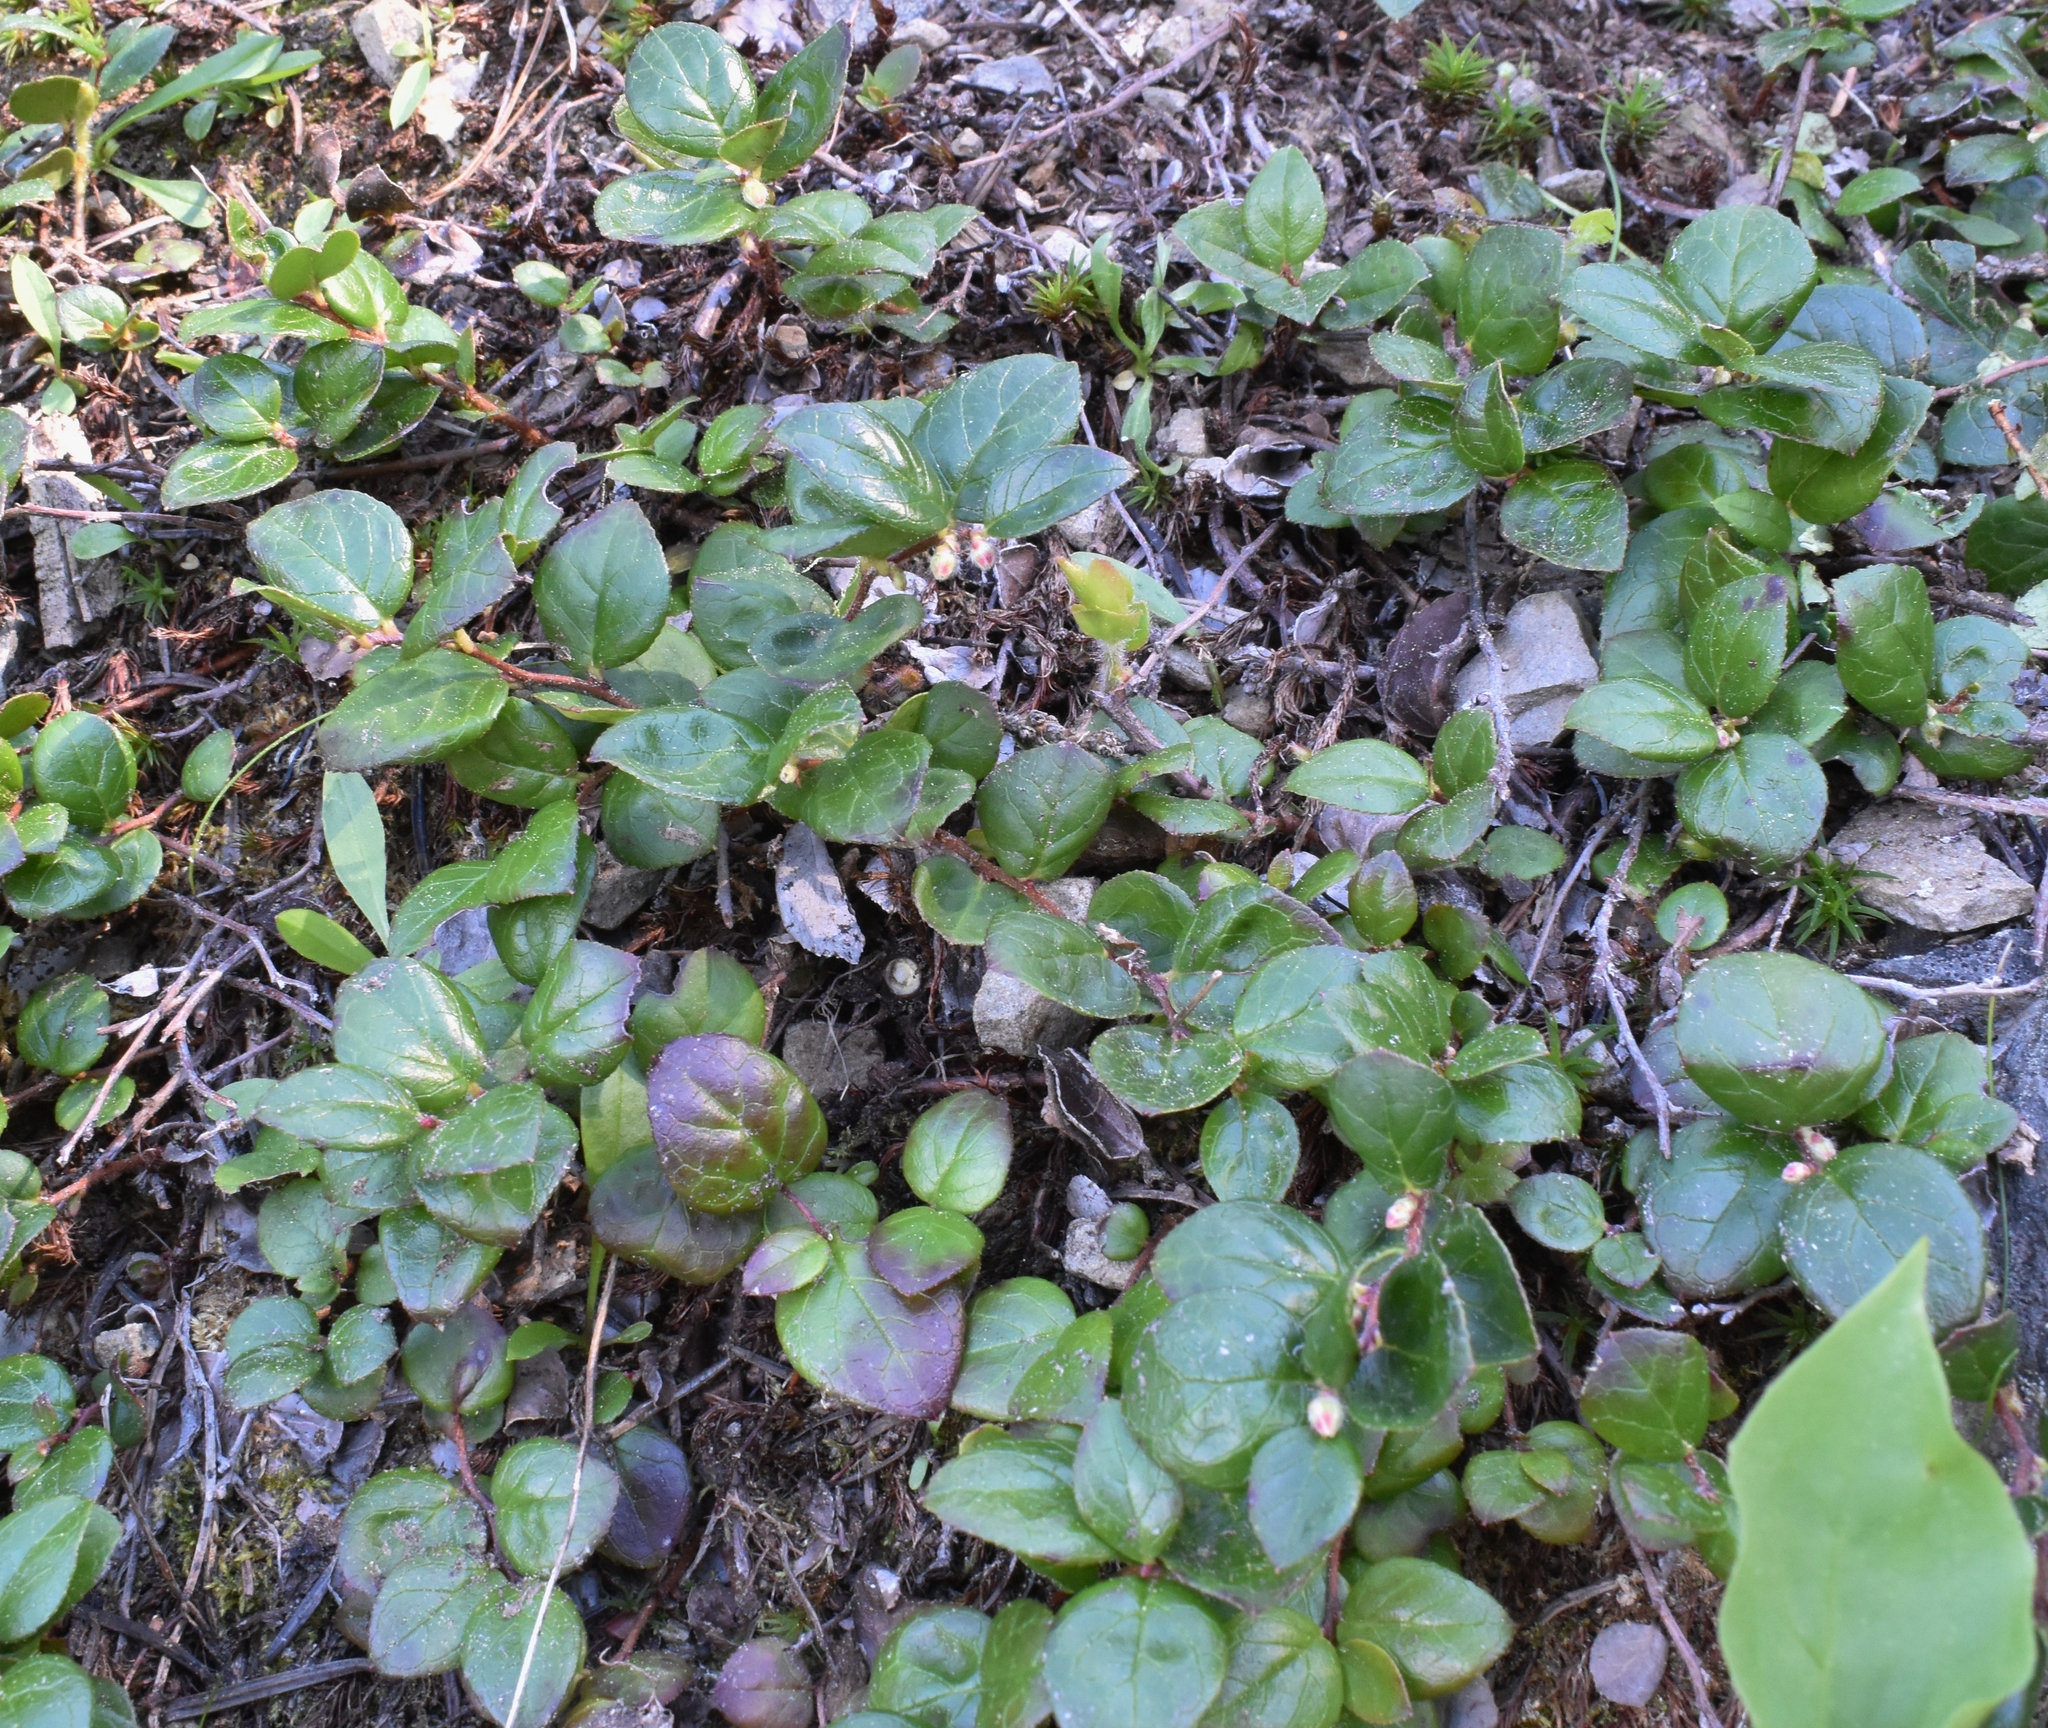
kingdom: Plantae
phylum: Tracheophyta
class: Magnoliopsida
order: Ericales
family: Ericaceae
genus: Gaultheria
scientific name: Gaultheria ovatifolia
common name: Oregon wintergreen
